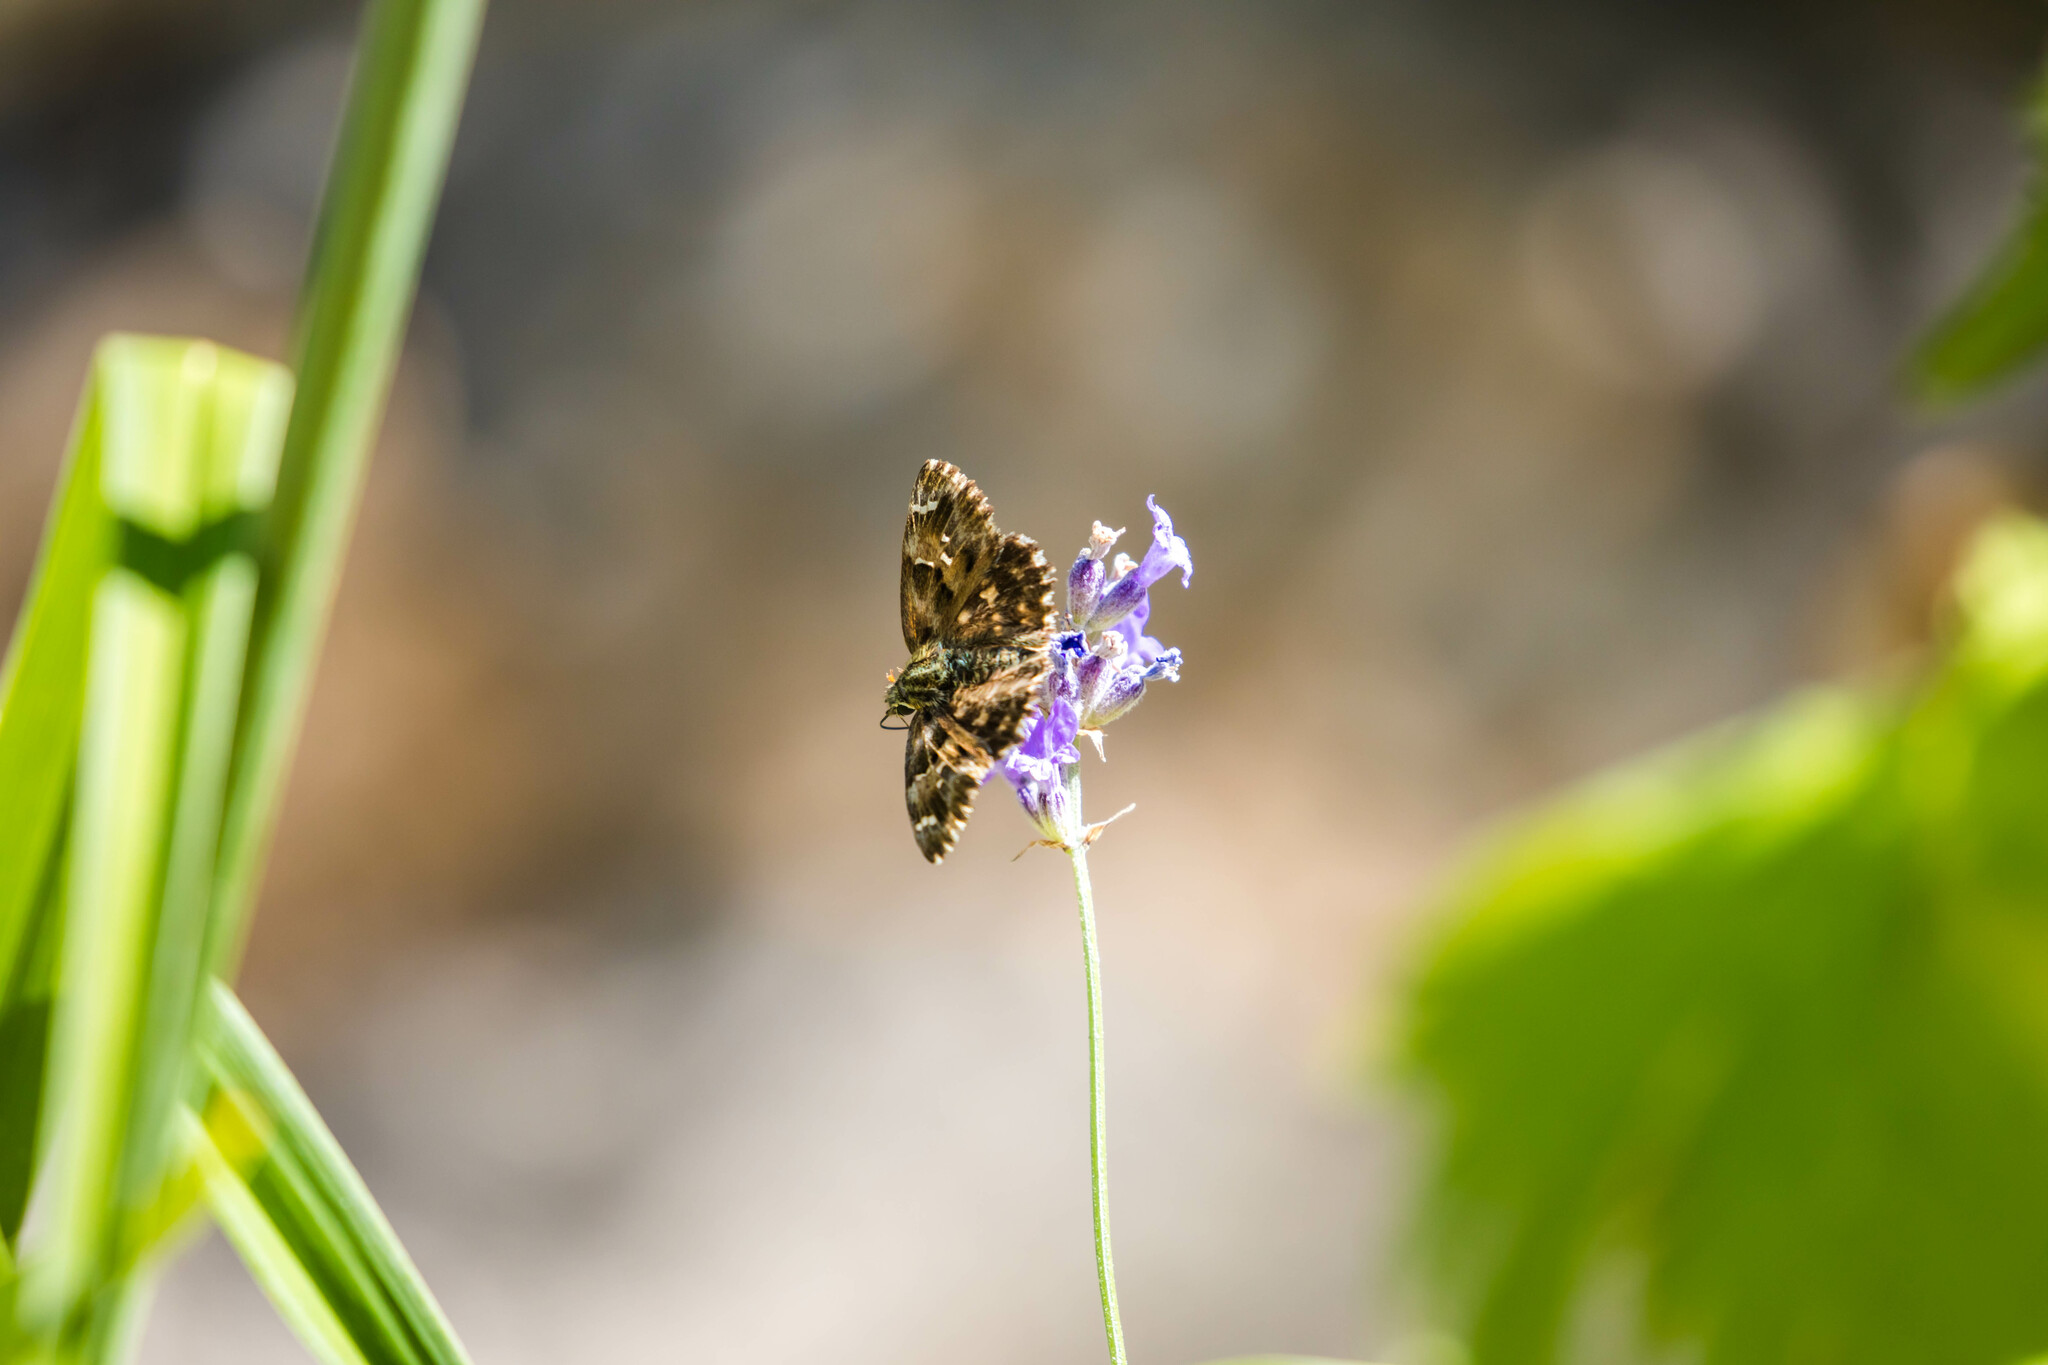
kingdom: Animalia
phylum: Arthropoda
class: Insecta
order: Lepidoptera
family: Hesperiidae
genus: Carcharodus
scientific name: Carcharodus alceae
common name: Mallow skipper
